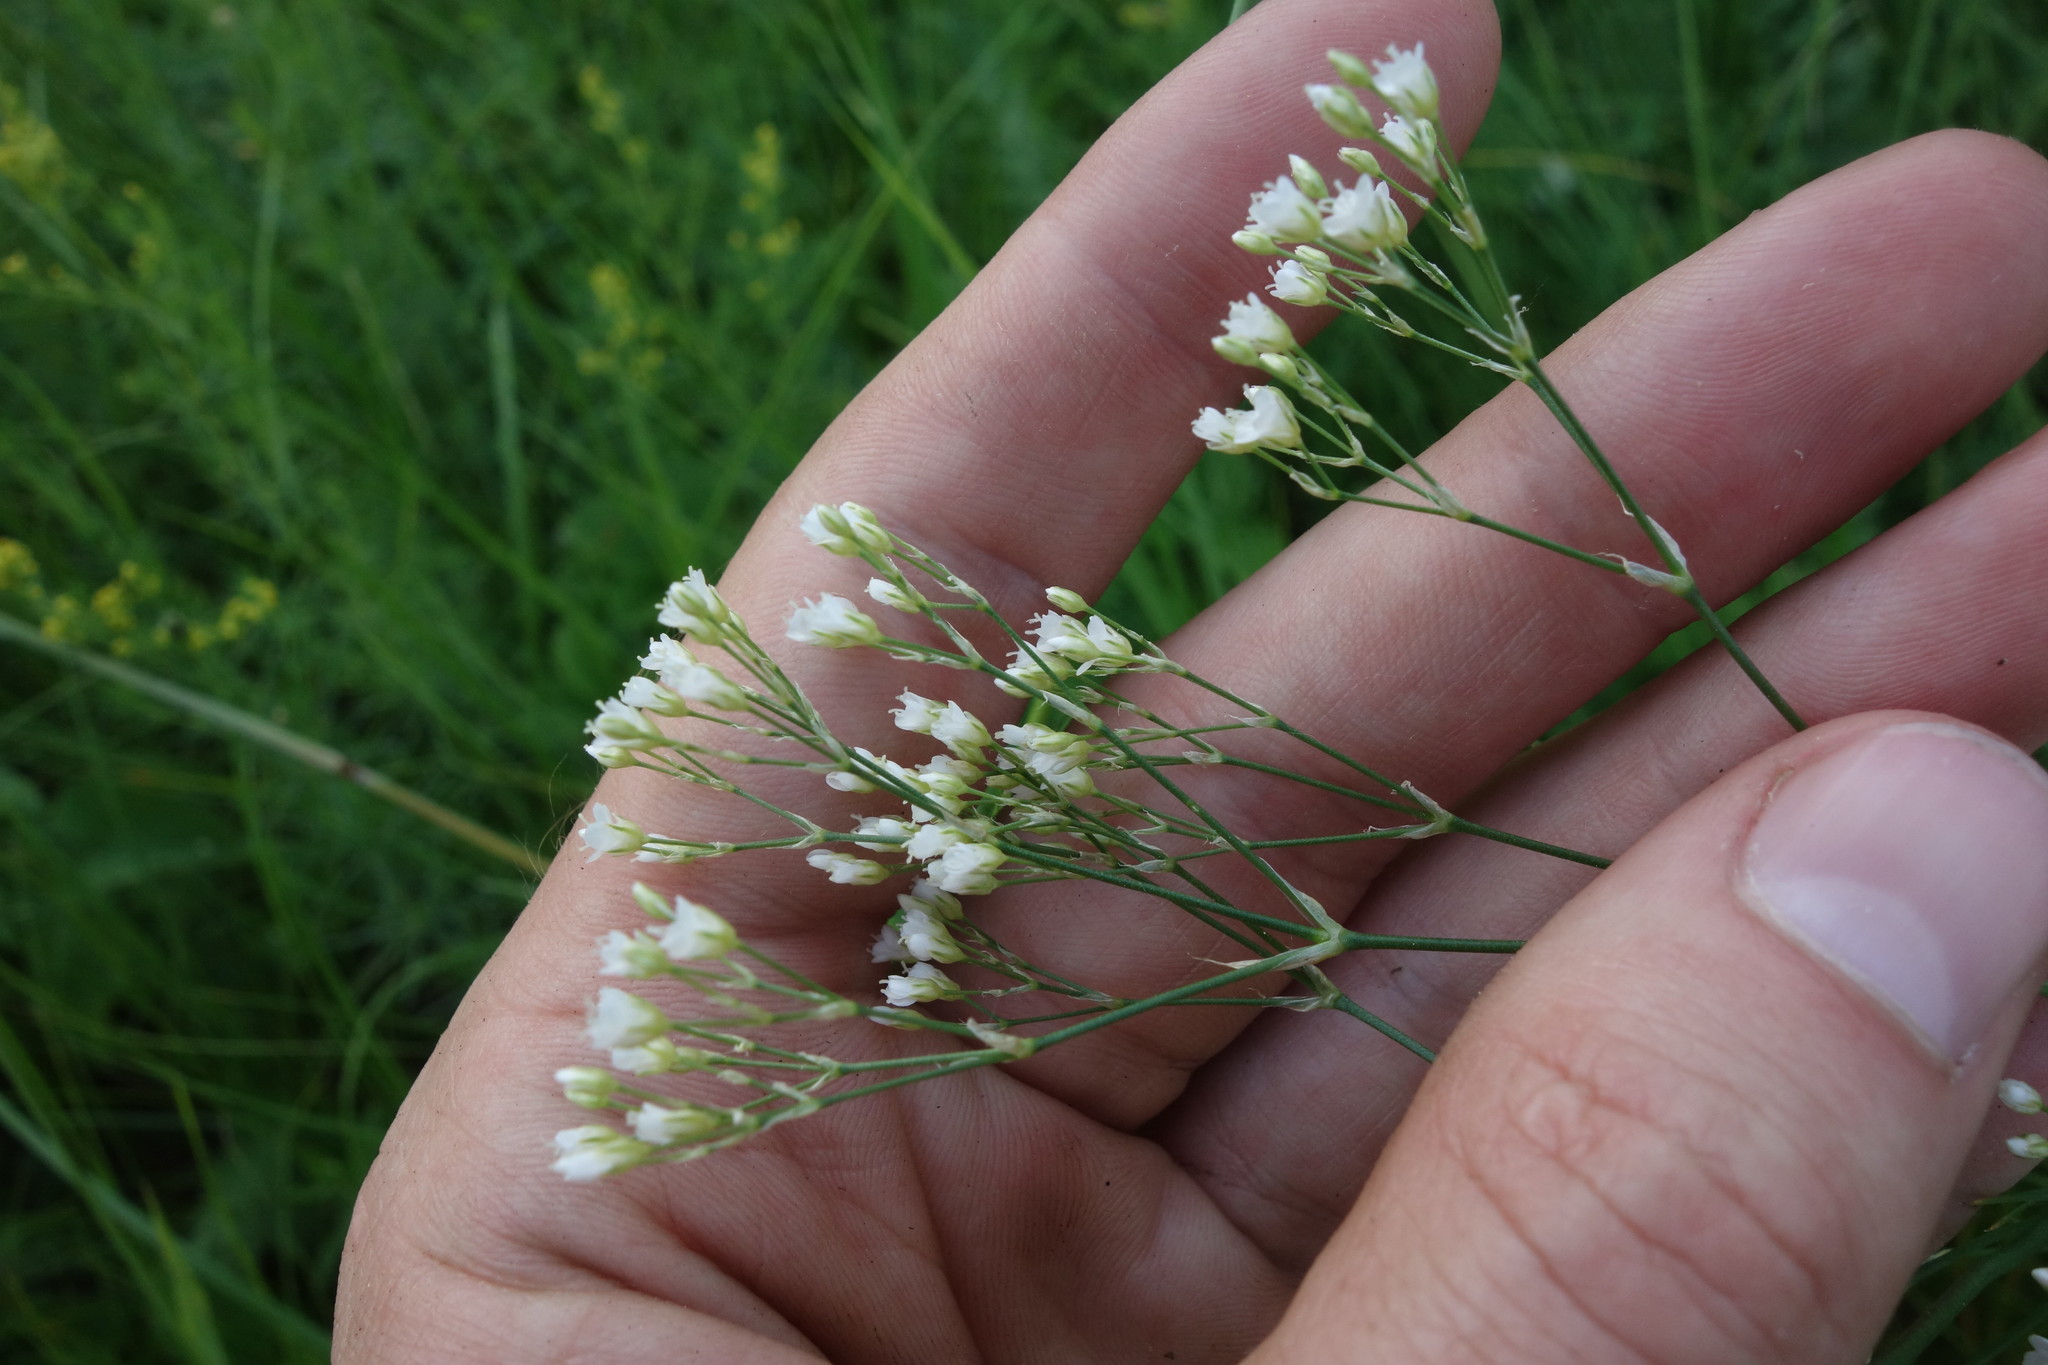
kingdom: Plantae
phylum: Tracheophyta
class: Magnoliopsida
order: Caryophyllales
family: Caryophyllaceae
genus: Eremogone
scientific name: Eremogone longifolia
